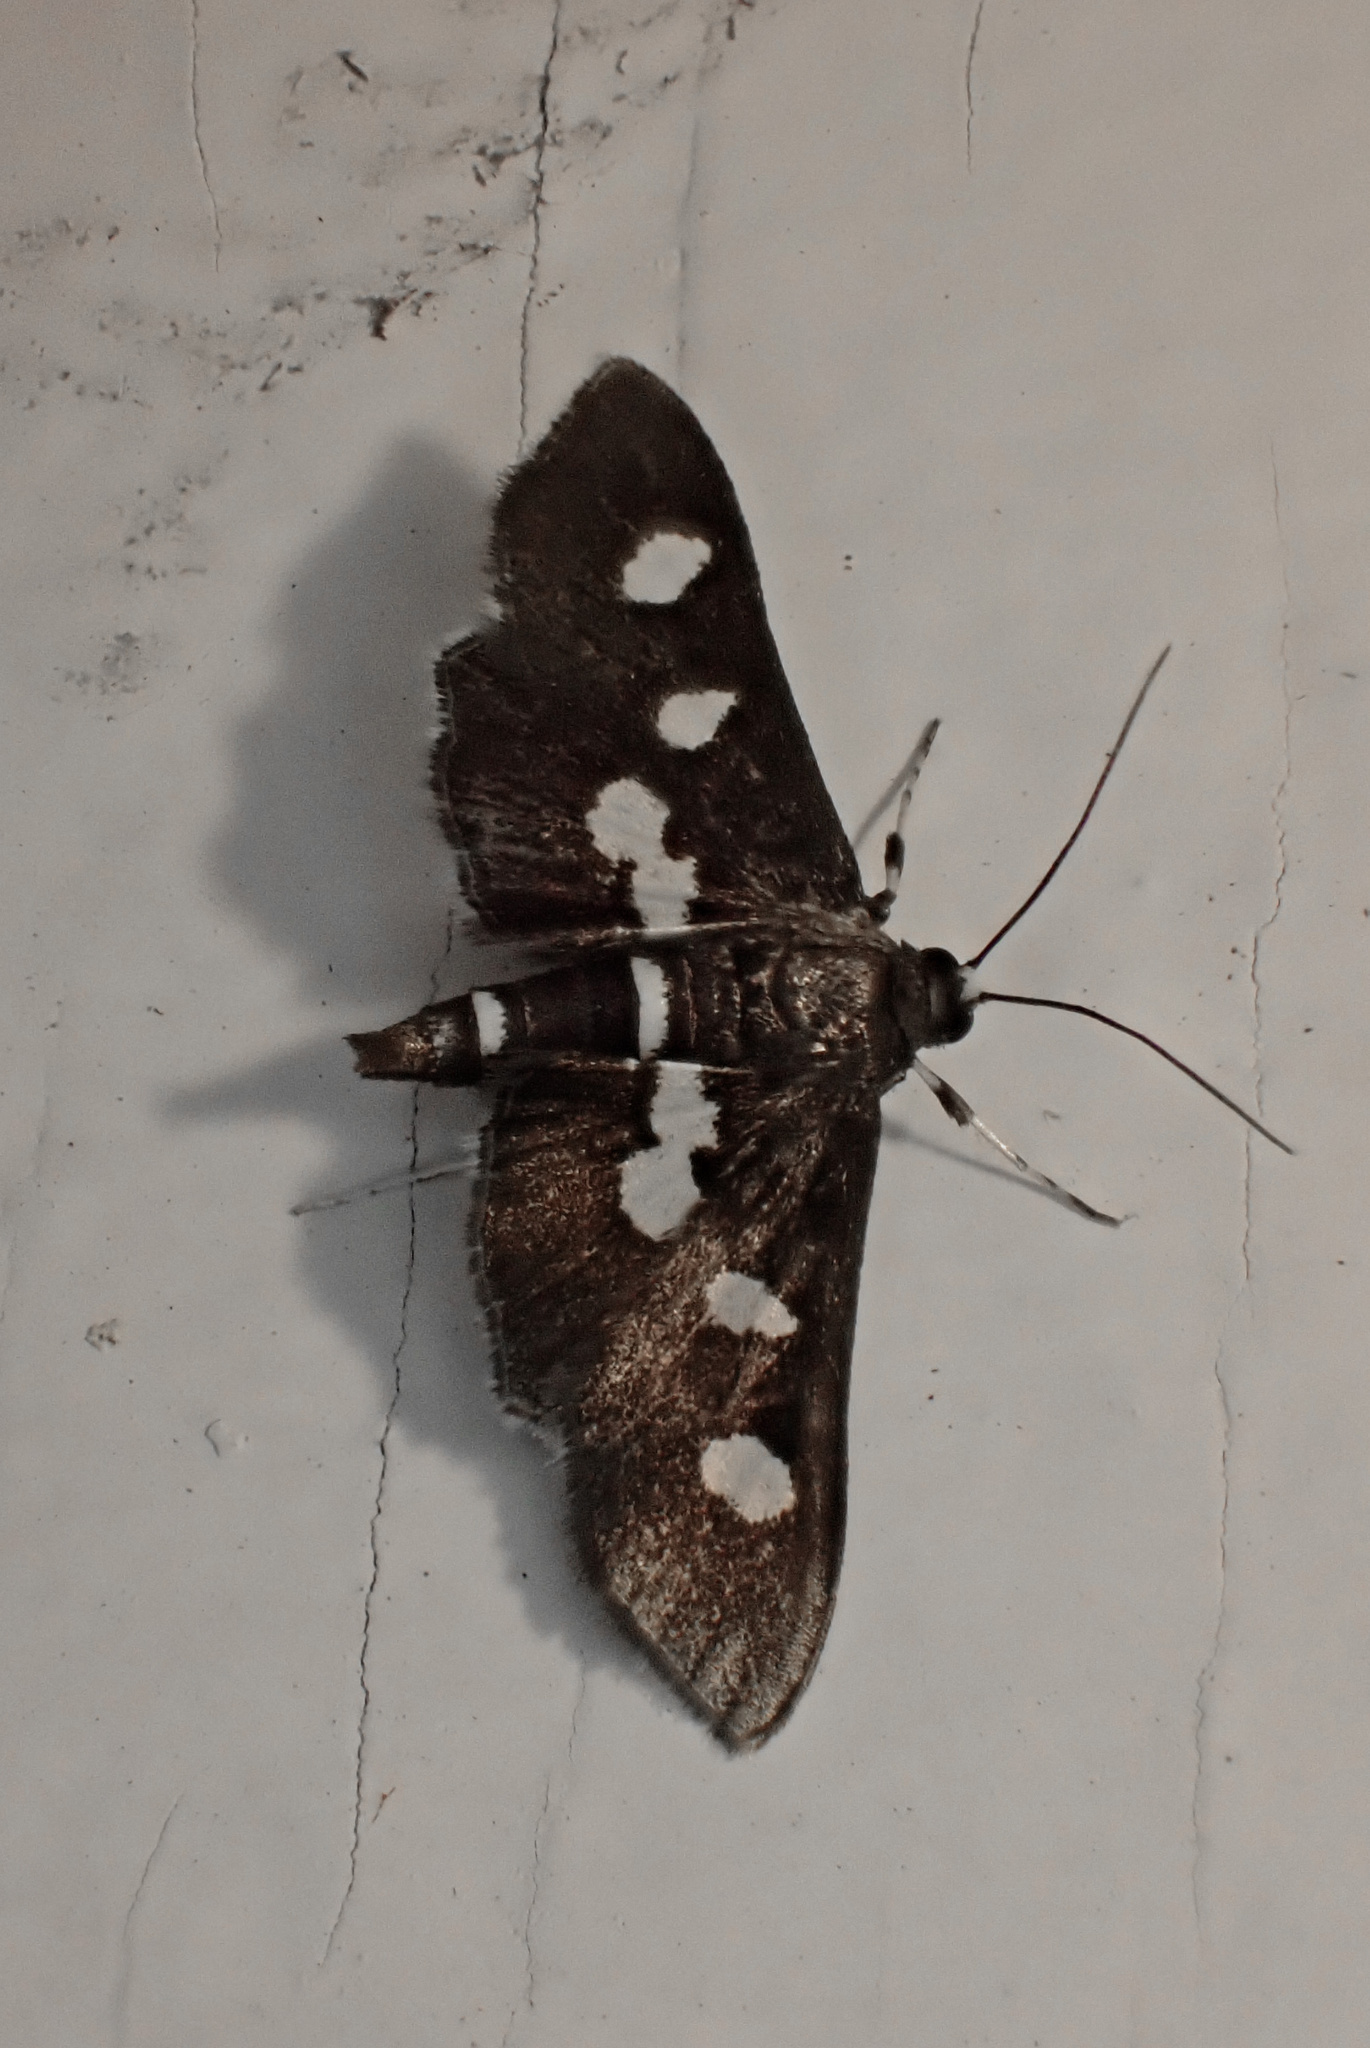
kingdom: Animalia
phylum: Arthropoda
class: Insecta
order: Lepidoptera
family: Crambidae
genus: Desmia
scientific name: Desmia
